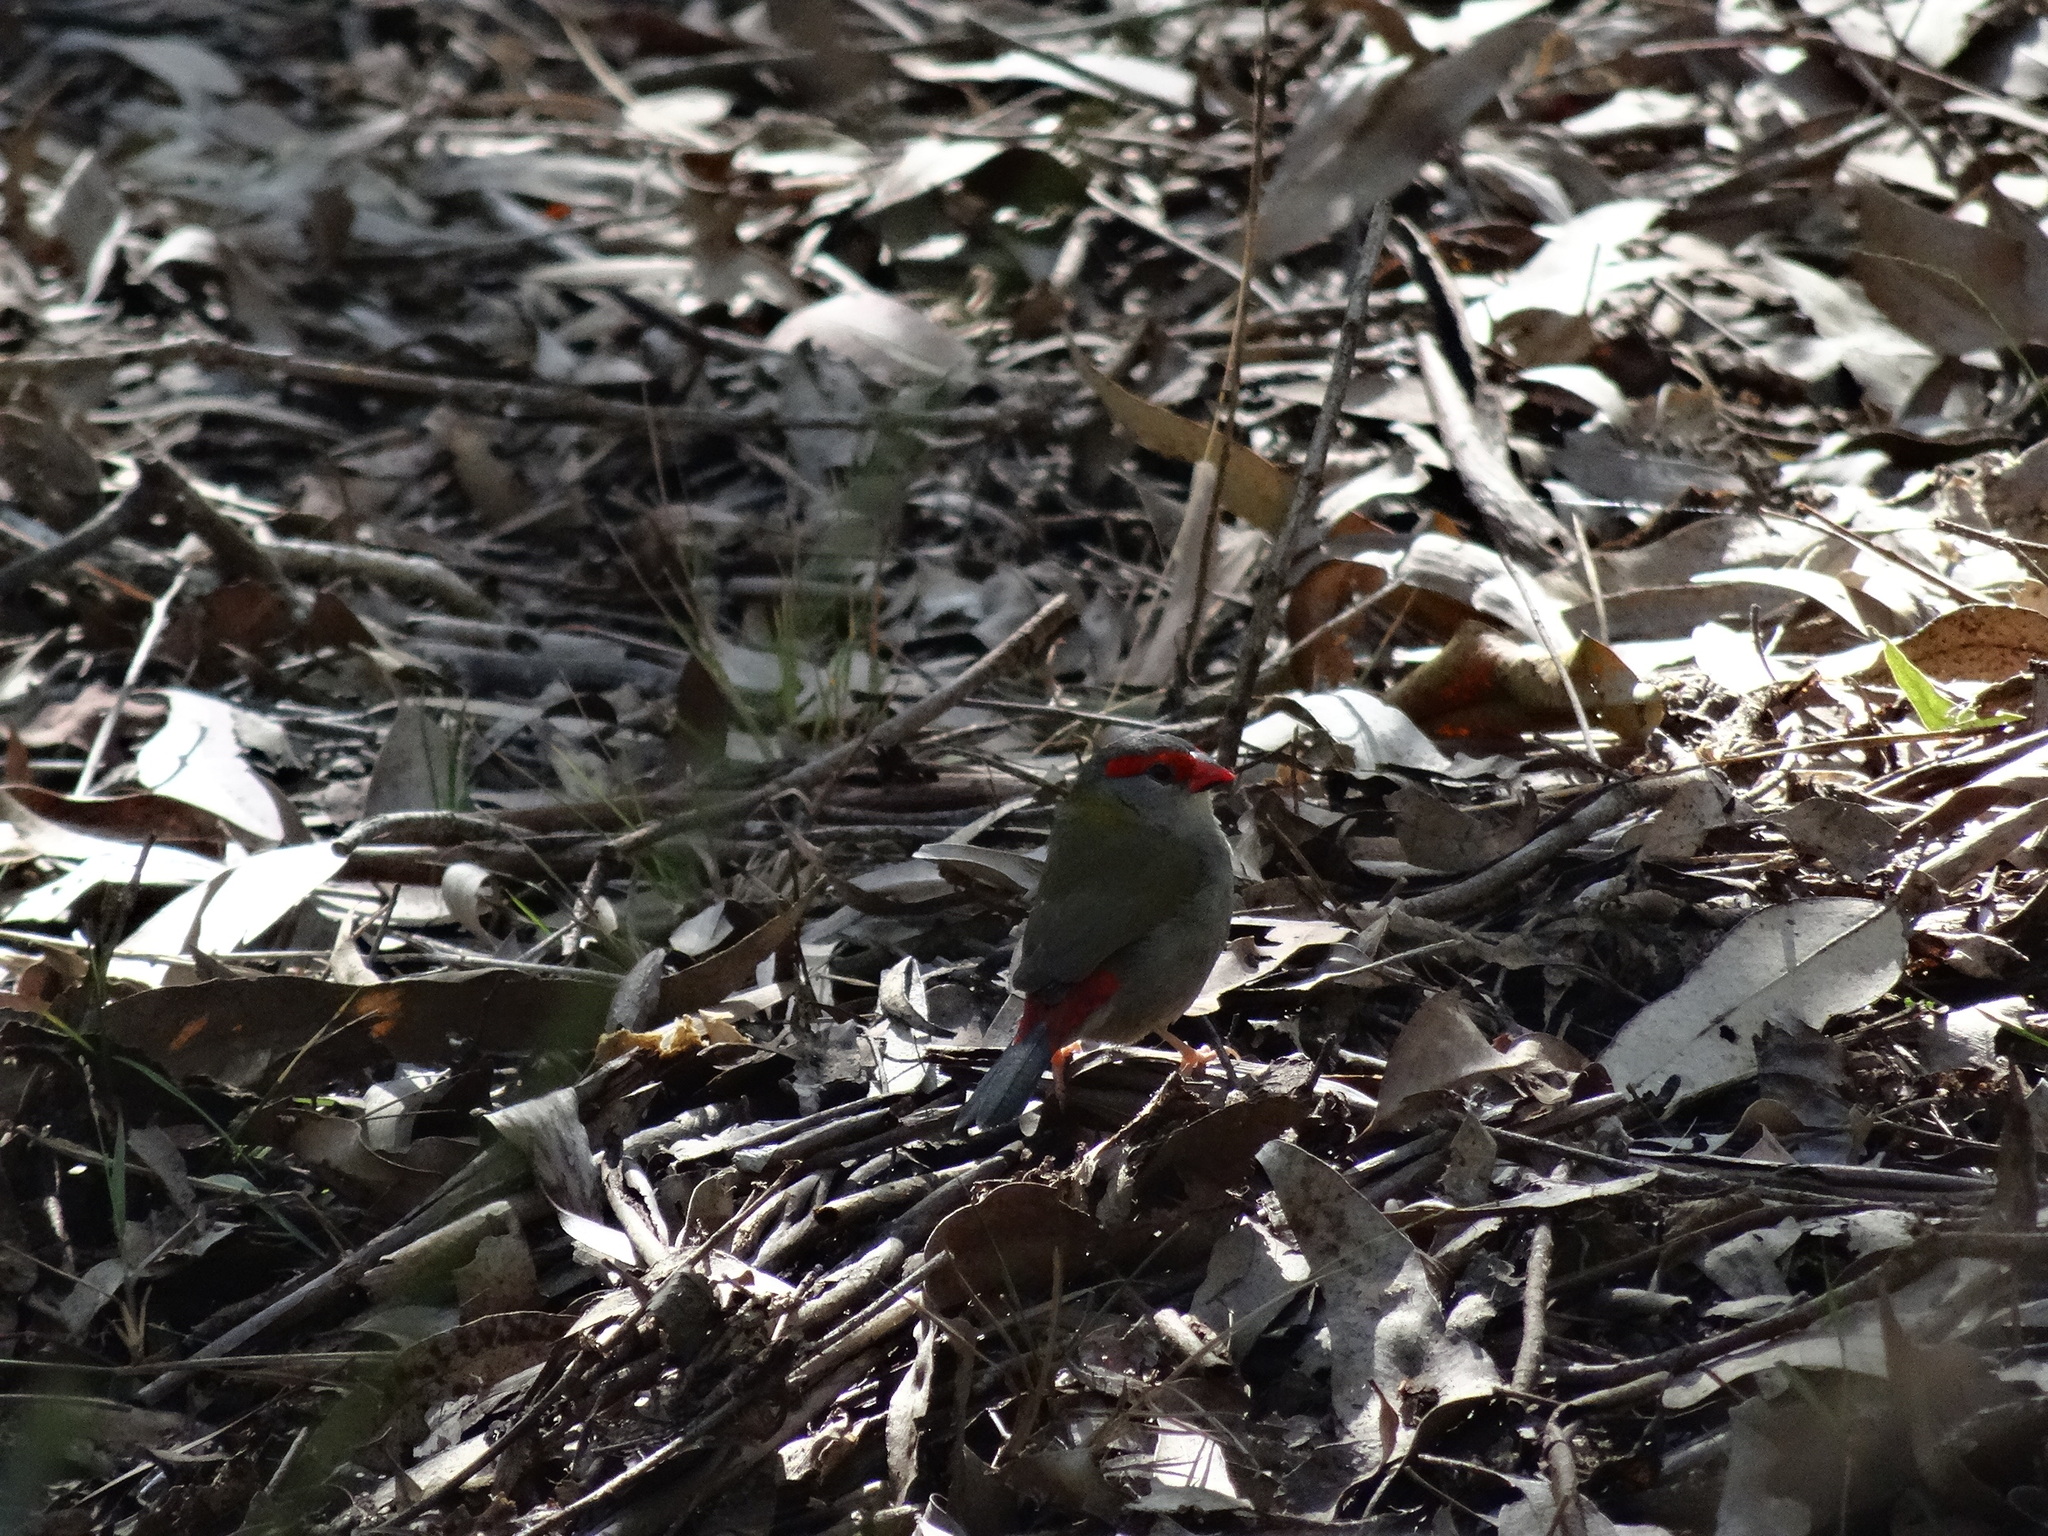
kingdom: Animalia
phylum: Chordata
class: Aves
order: Passeriformes
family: Estrildidae
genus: Neochmia
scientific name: Neochmia temporalis
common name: Red-browed finch
